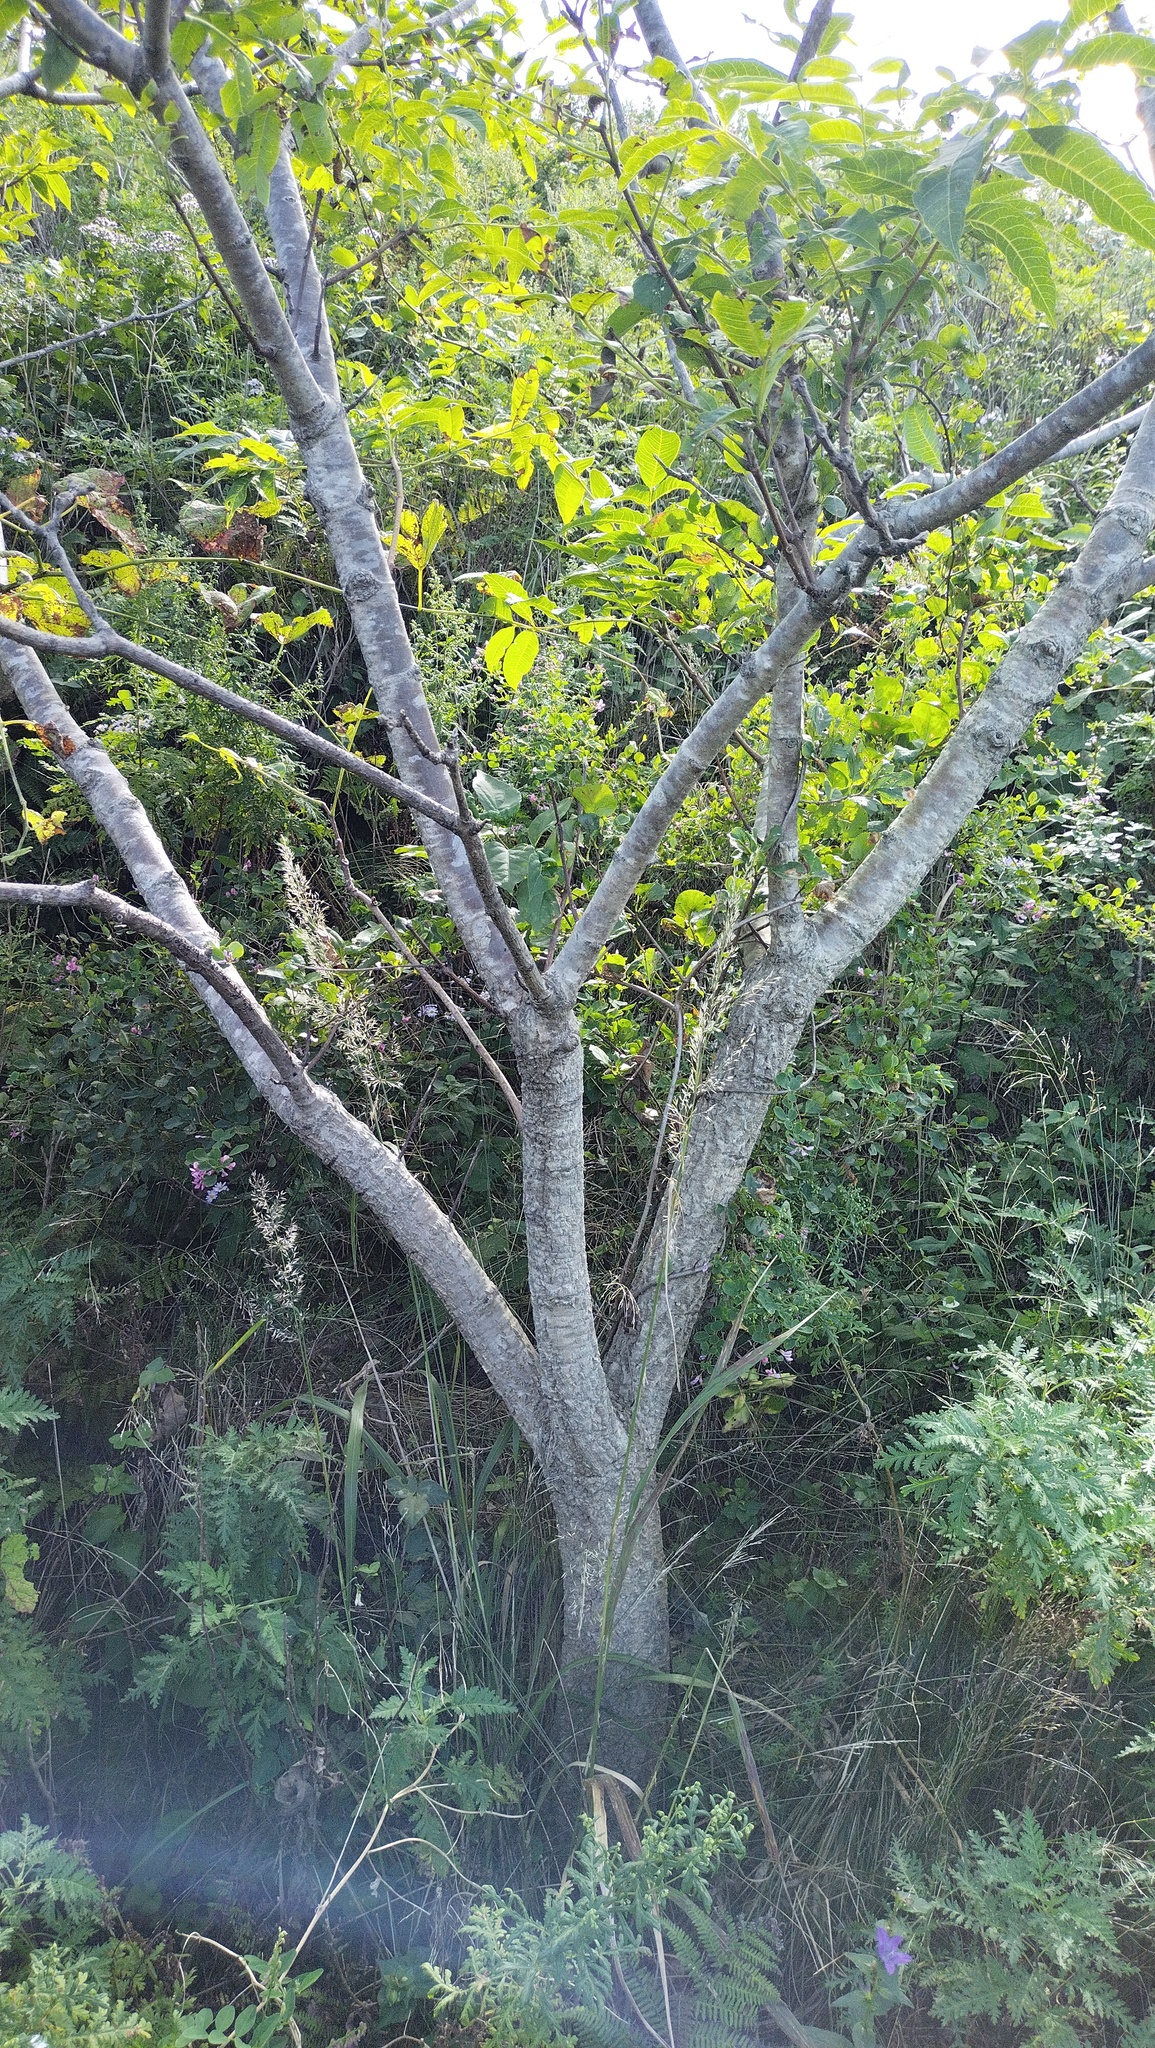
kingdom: Plantae
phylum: Tracheophyta
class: Magnoliopsida
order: Sapindales
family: Rutaceae
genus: Phellodendron
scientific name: Phellodendron amurense
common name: Amur corktree
